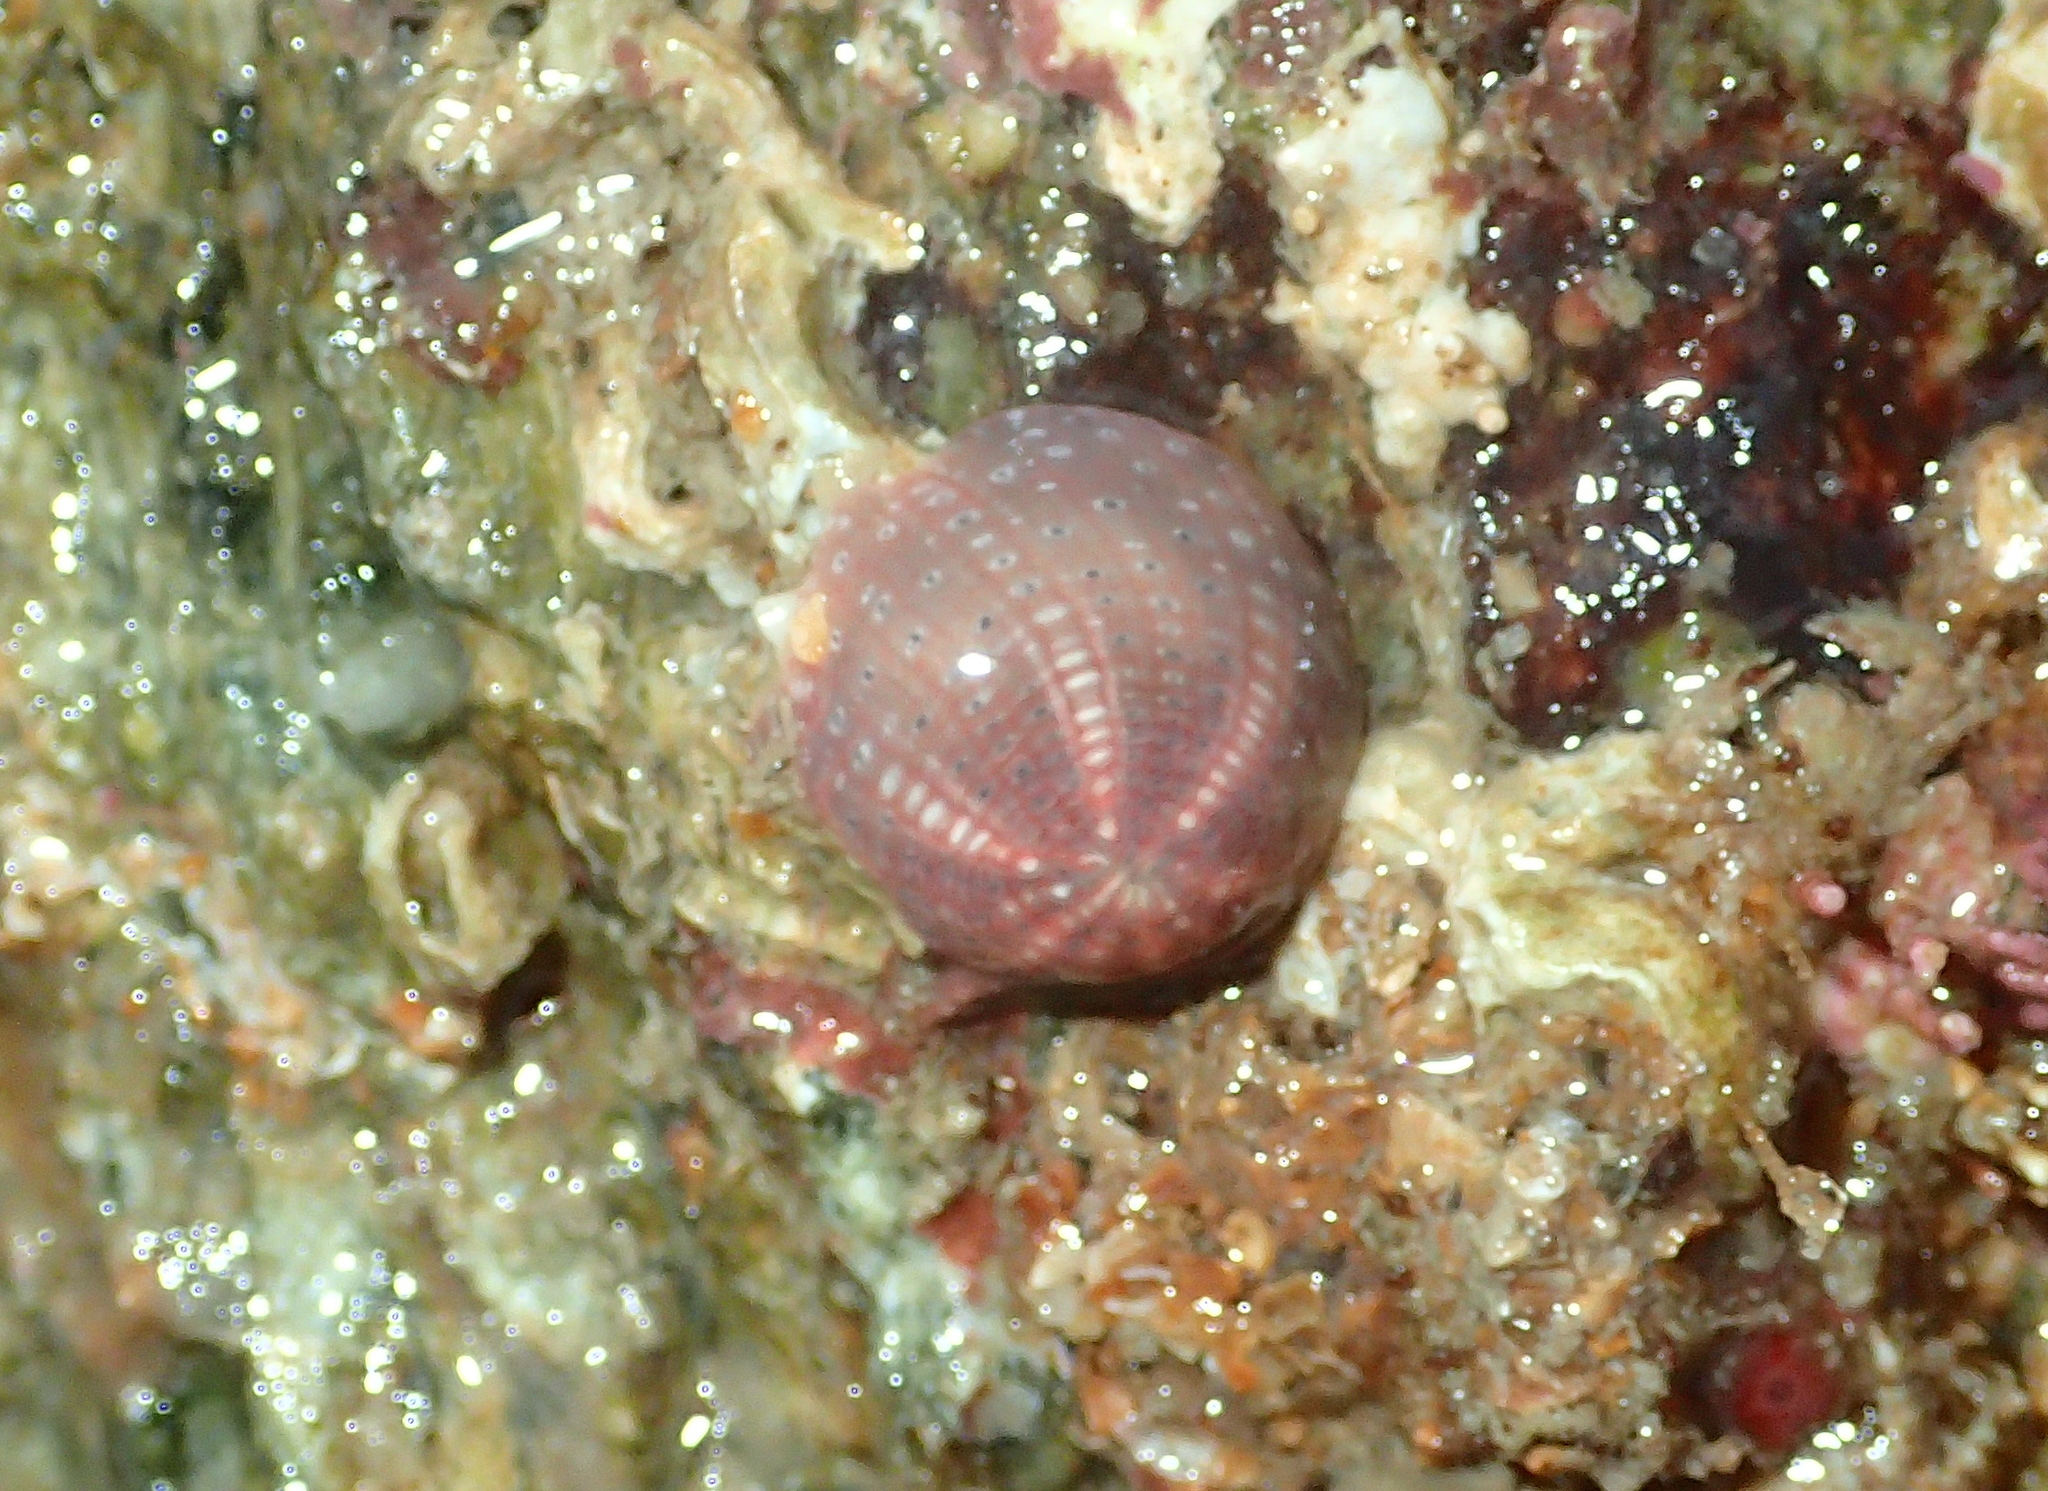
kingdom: Animalia
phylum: Cnidaria
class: Anthozoa
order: Actiniaria
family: Actiniidae
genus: Bunodactis
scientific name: Bunodactis verrucosa
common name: Gem anemone
